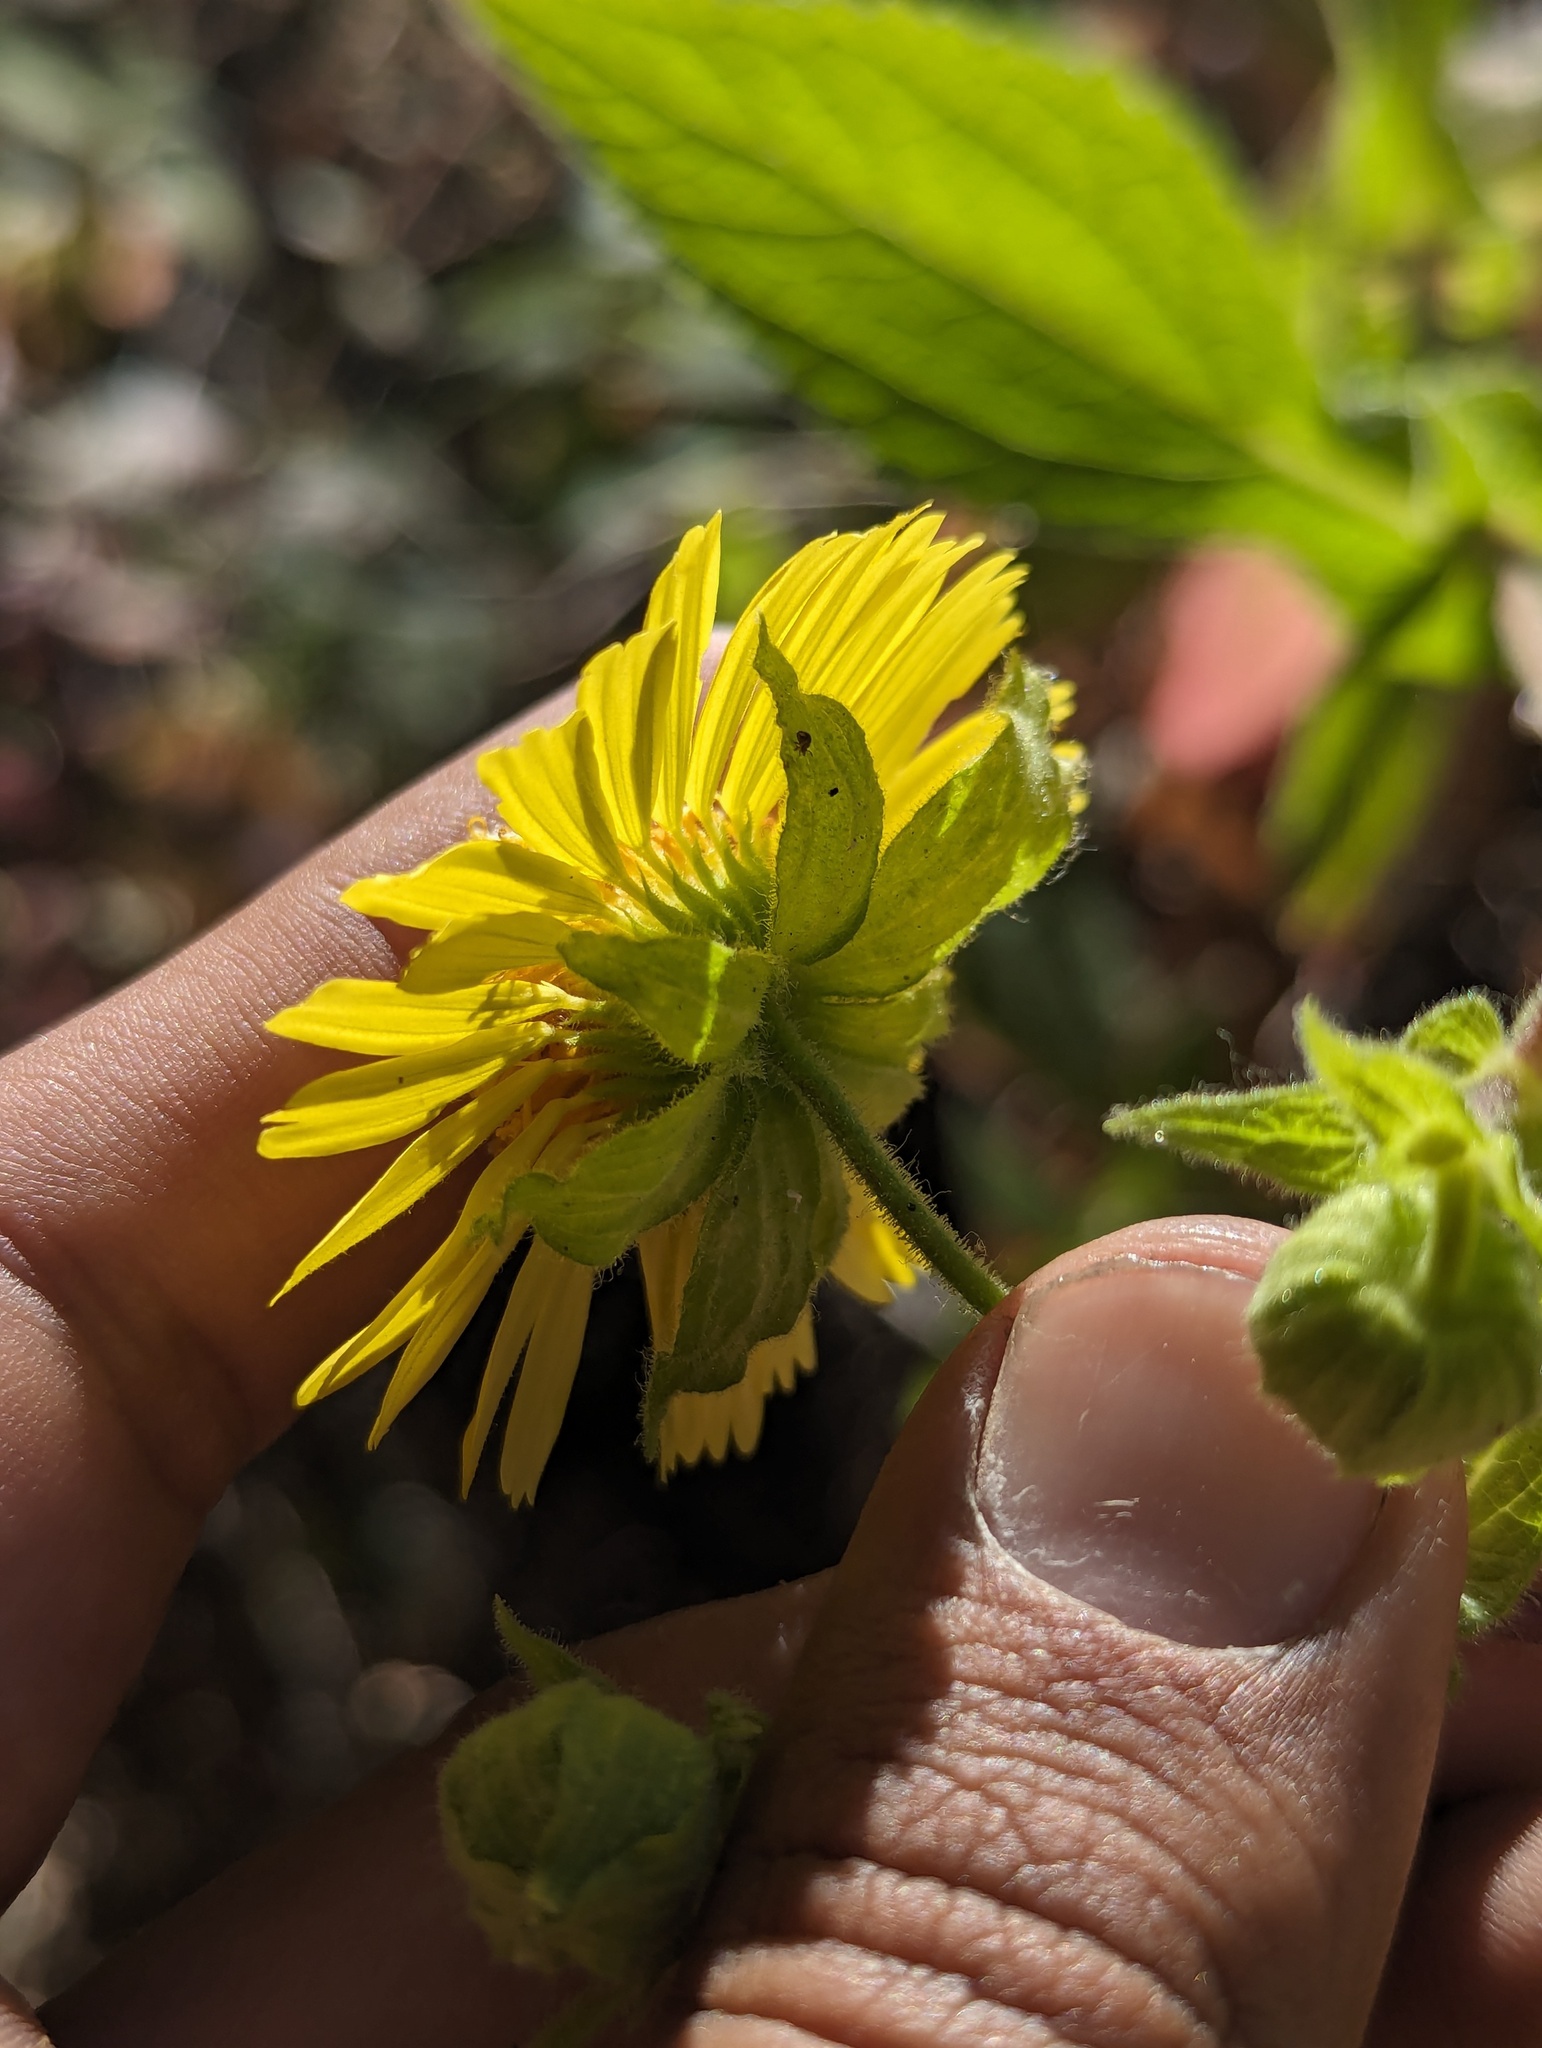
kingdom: Plantae
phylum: Tracheophyta
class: Magnoliopsida
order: Asterales
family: Asteraceae
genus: Rumfordia
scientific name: Rumfordia connata
